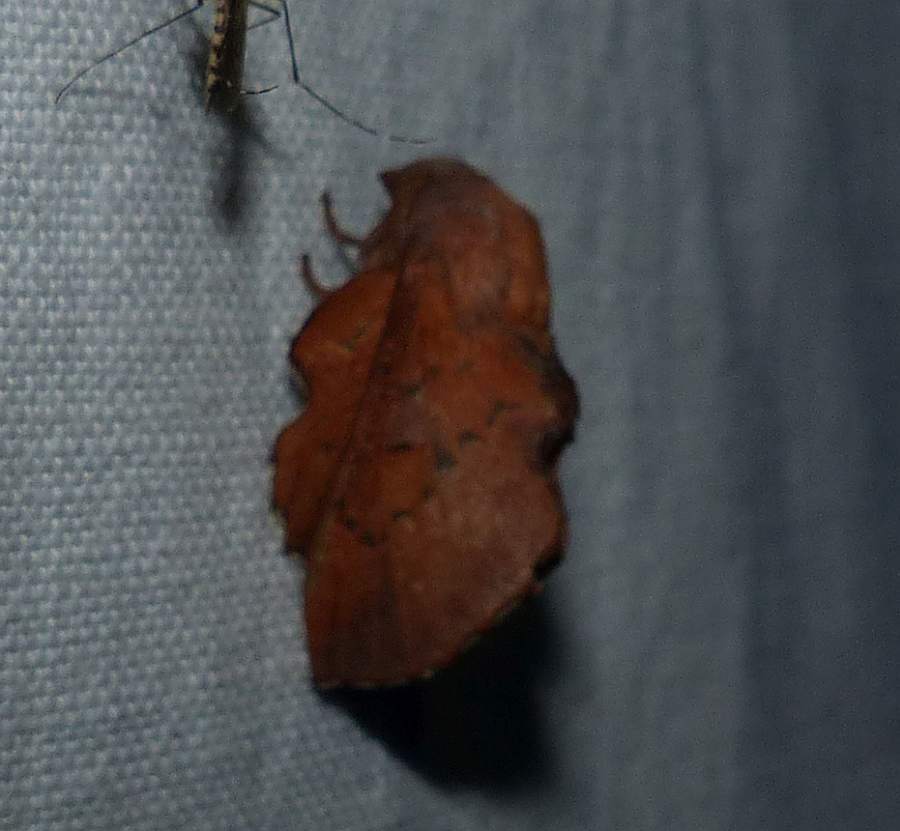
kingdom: Animalia
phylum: Arthropoda
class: Insecta
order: Lepidoptera
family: Lasiocampidae
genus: Phyllodesma
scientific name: Phyllodesma americana
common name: American lappet moth
